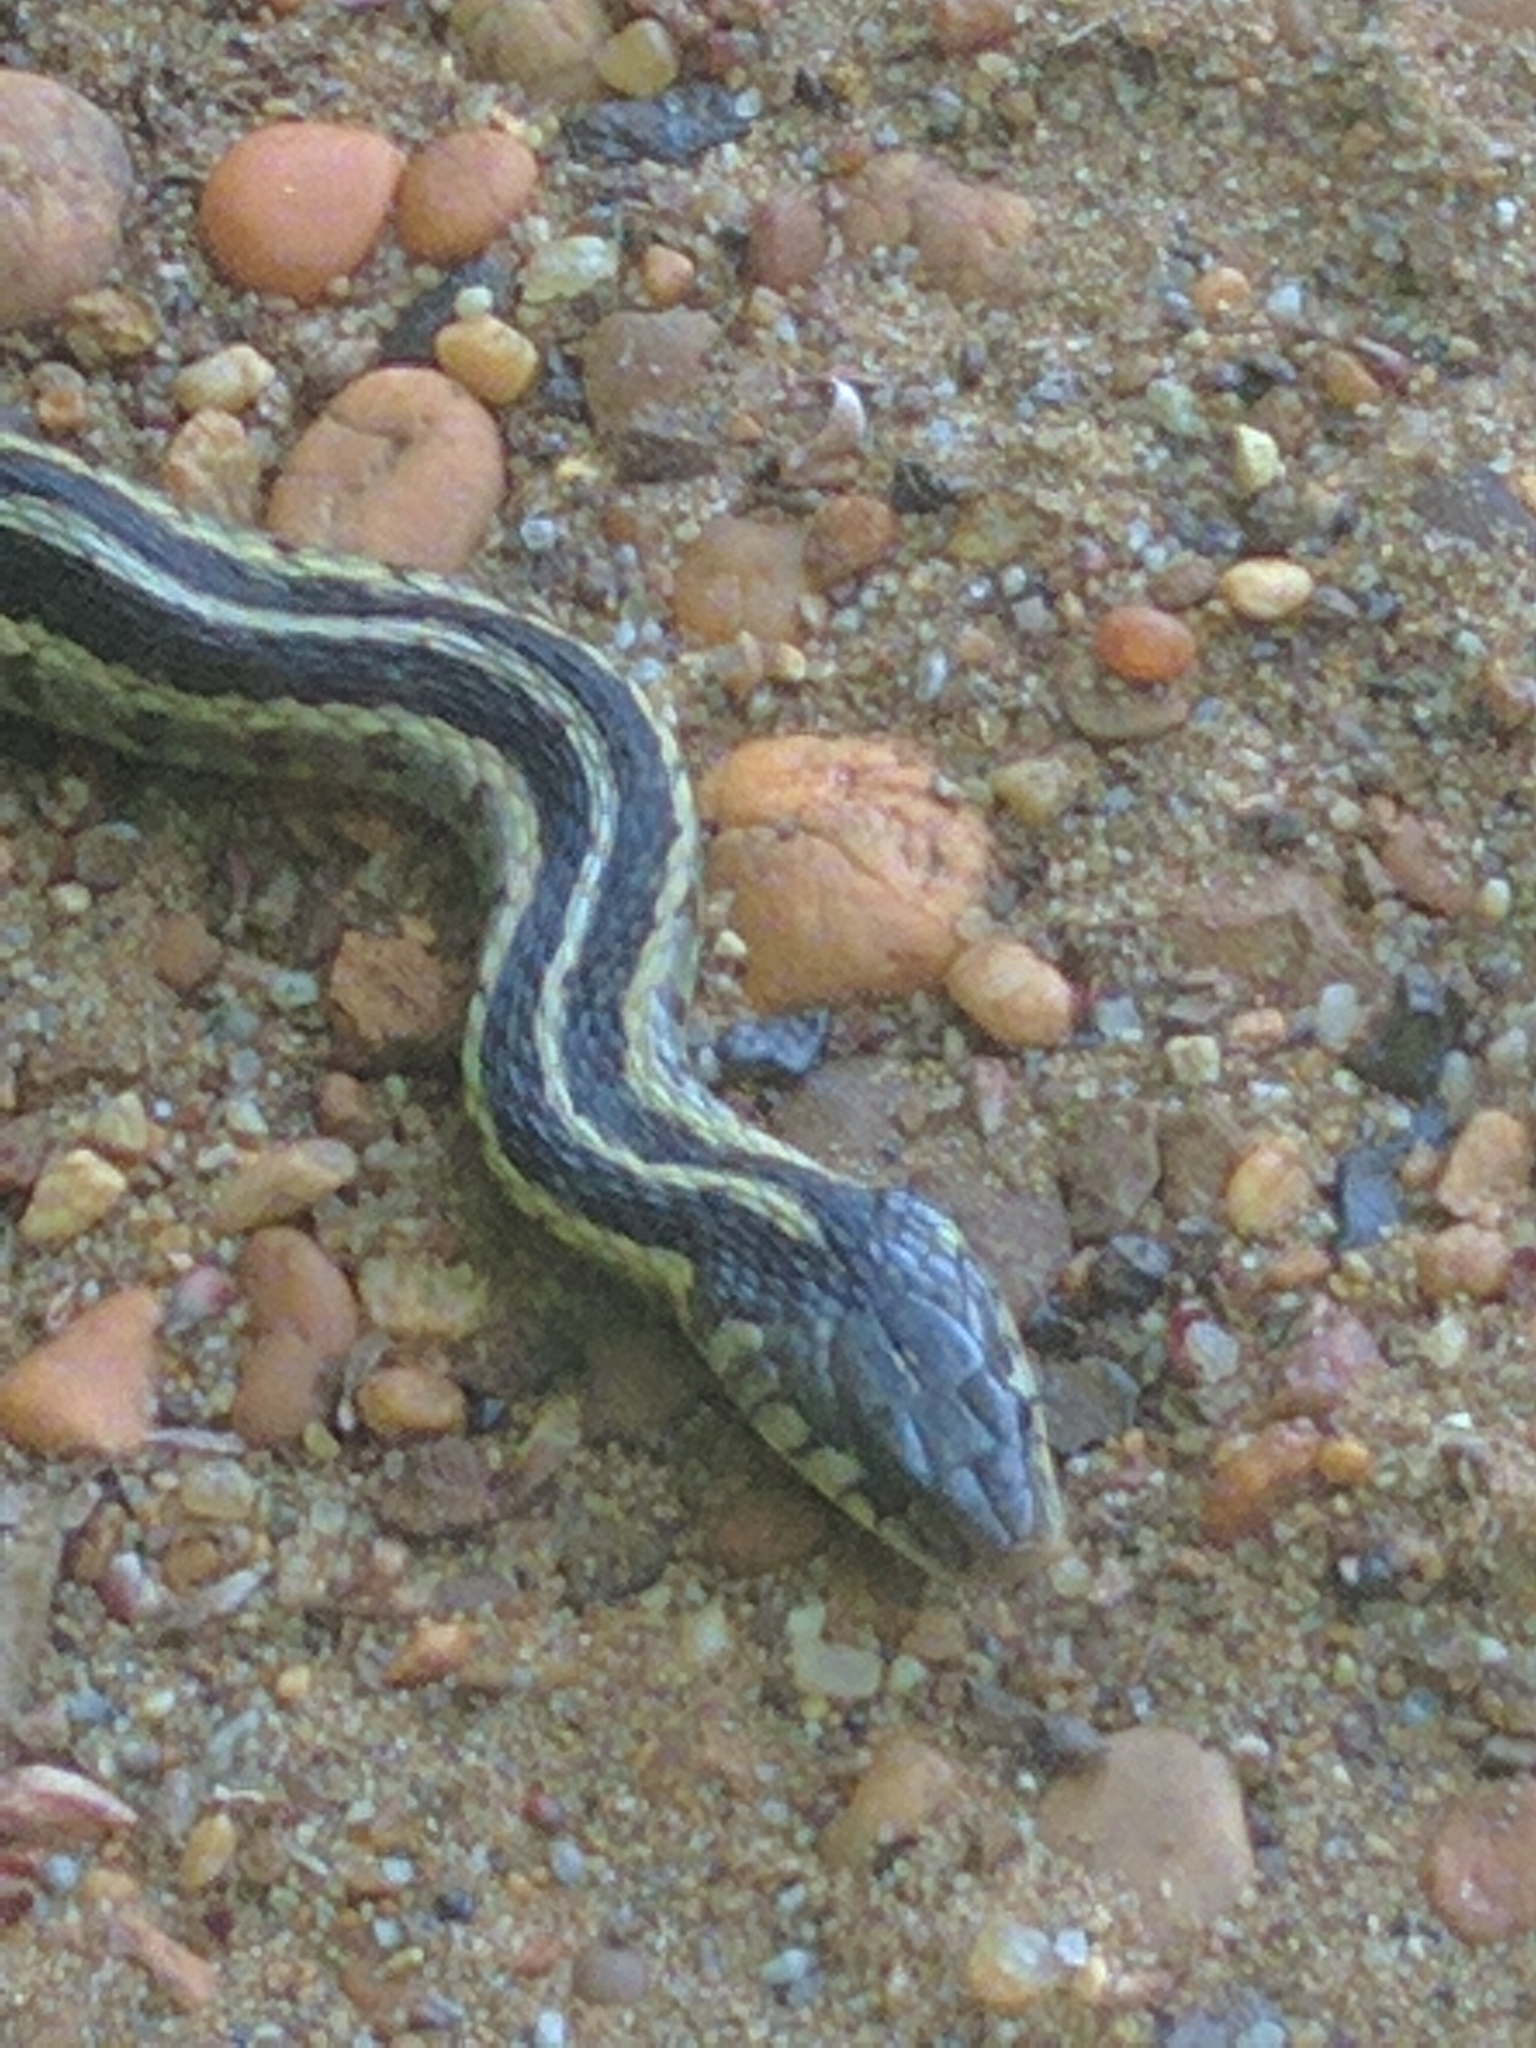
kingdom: Animalia
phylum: Chordata
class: Squamata
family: Colubridae
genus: Thamnophis
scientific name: Thamnophis sirtalis
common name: Common garter snake
